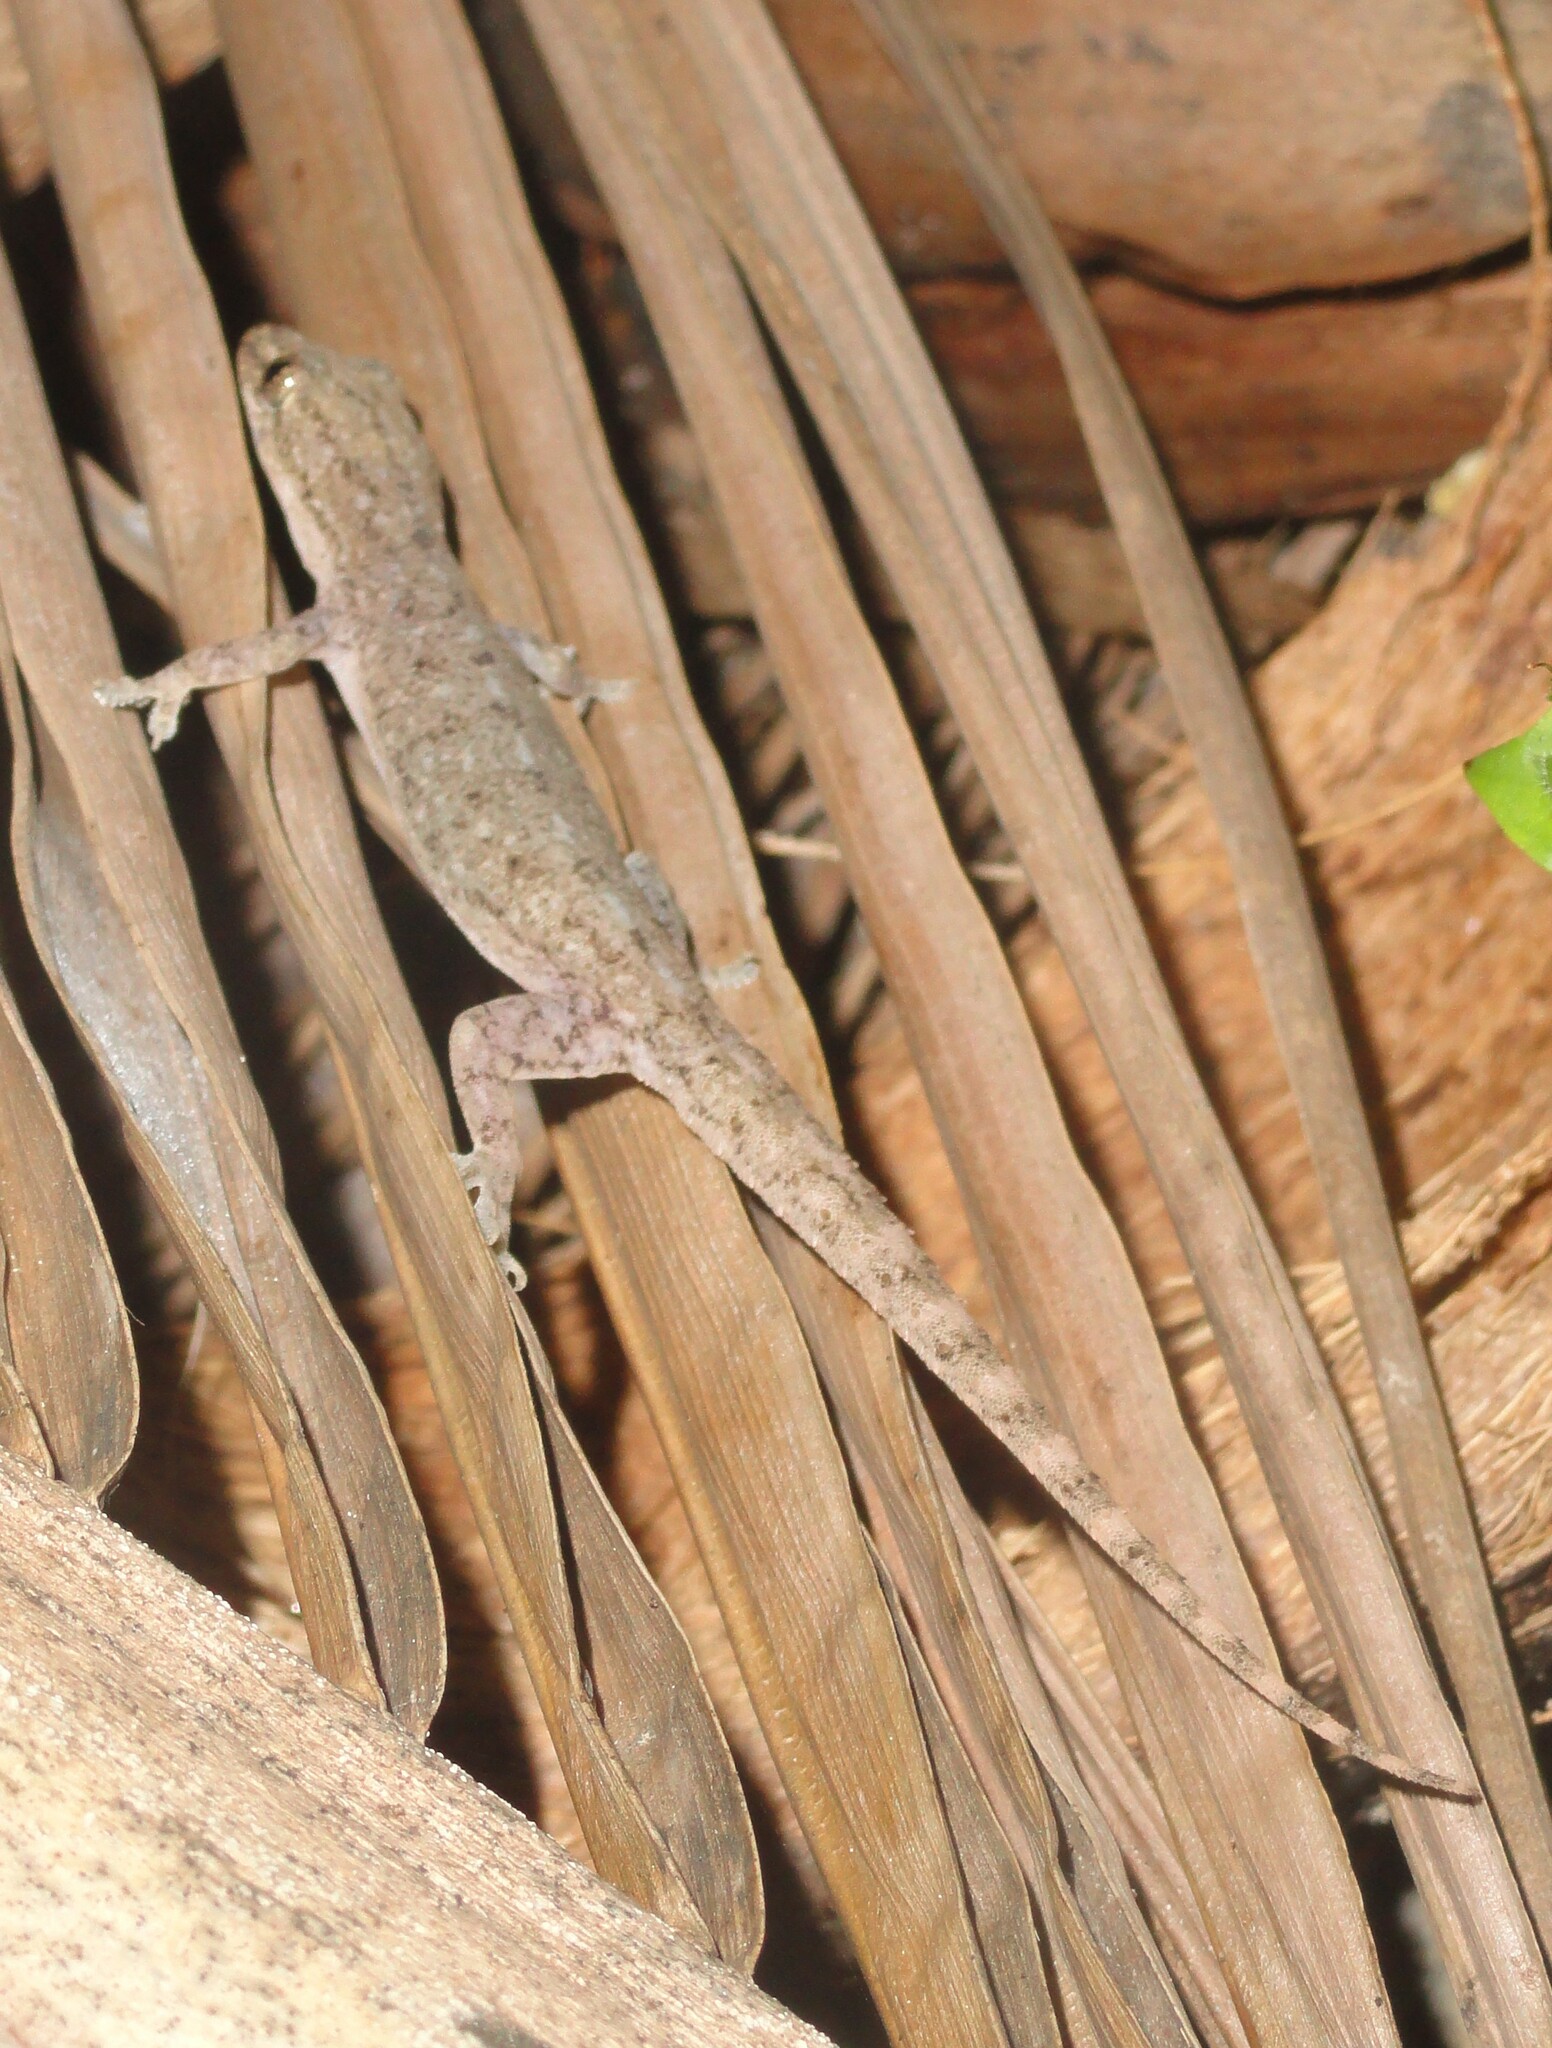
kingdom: Animalia
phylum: Chordata
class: Squamata
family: Gekkonidae
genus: Hemidactylus
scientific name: Hemidactylus frenatus
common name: Common house gecko
